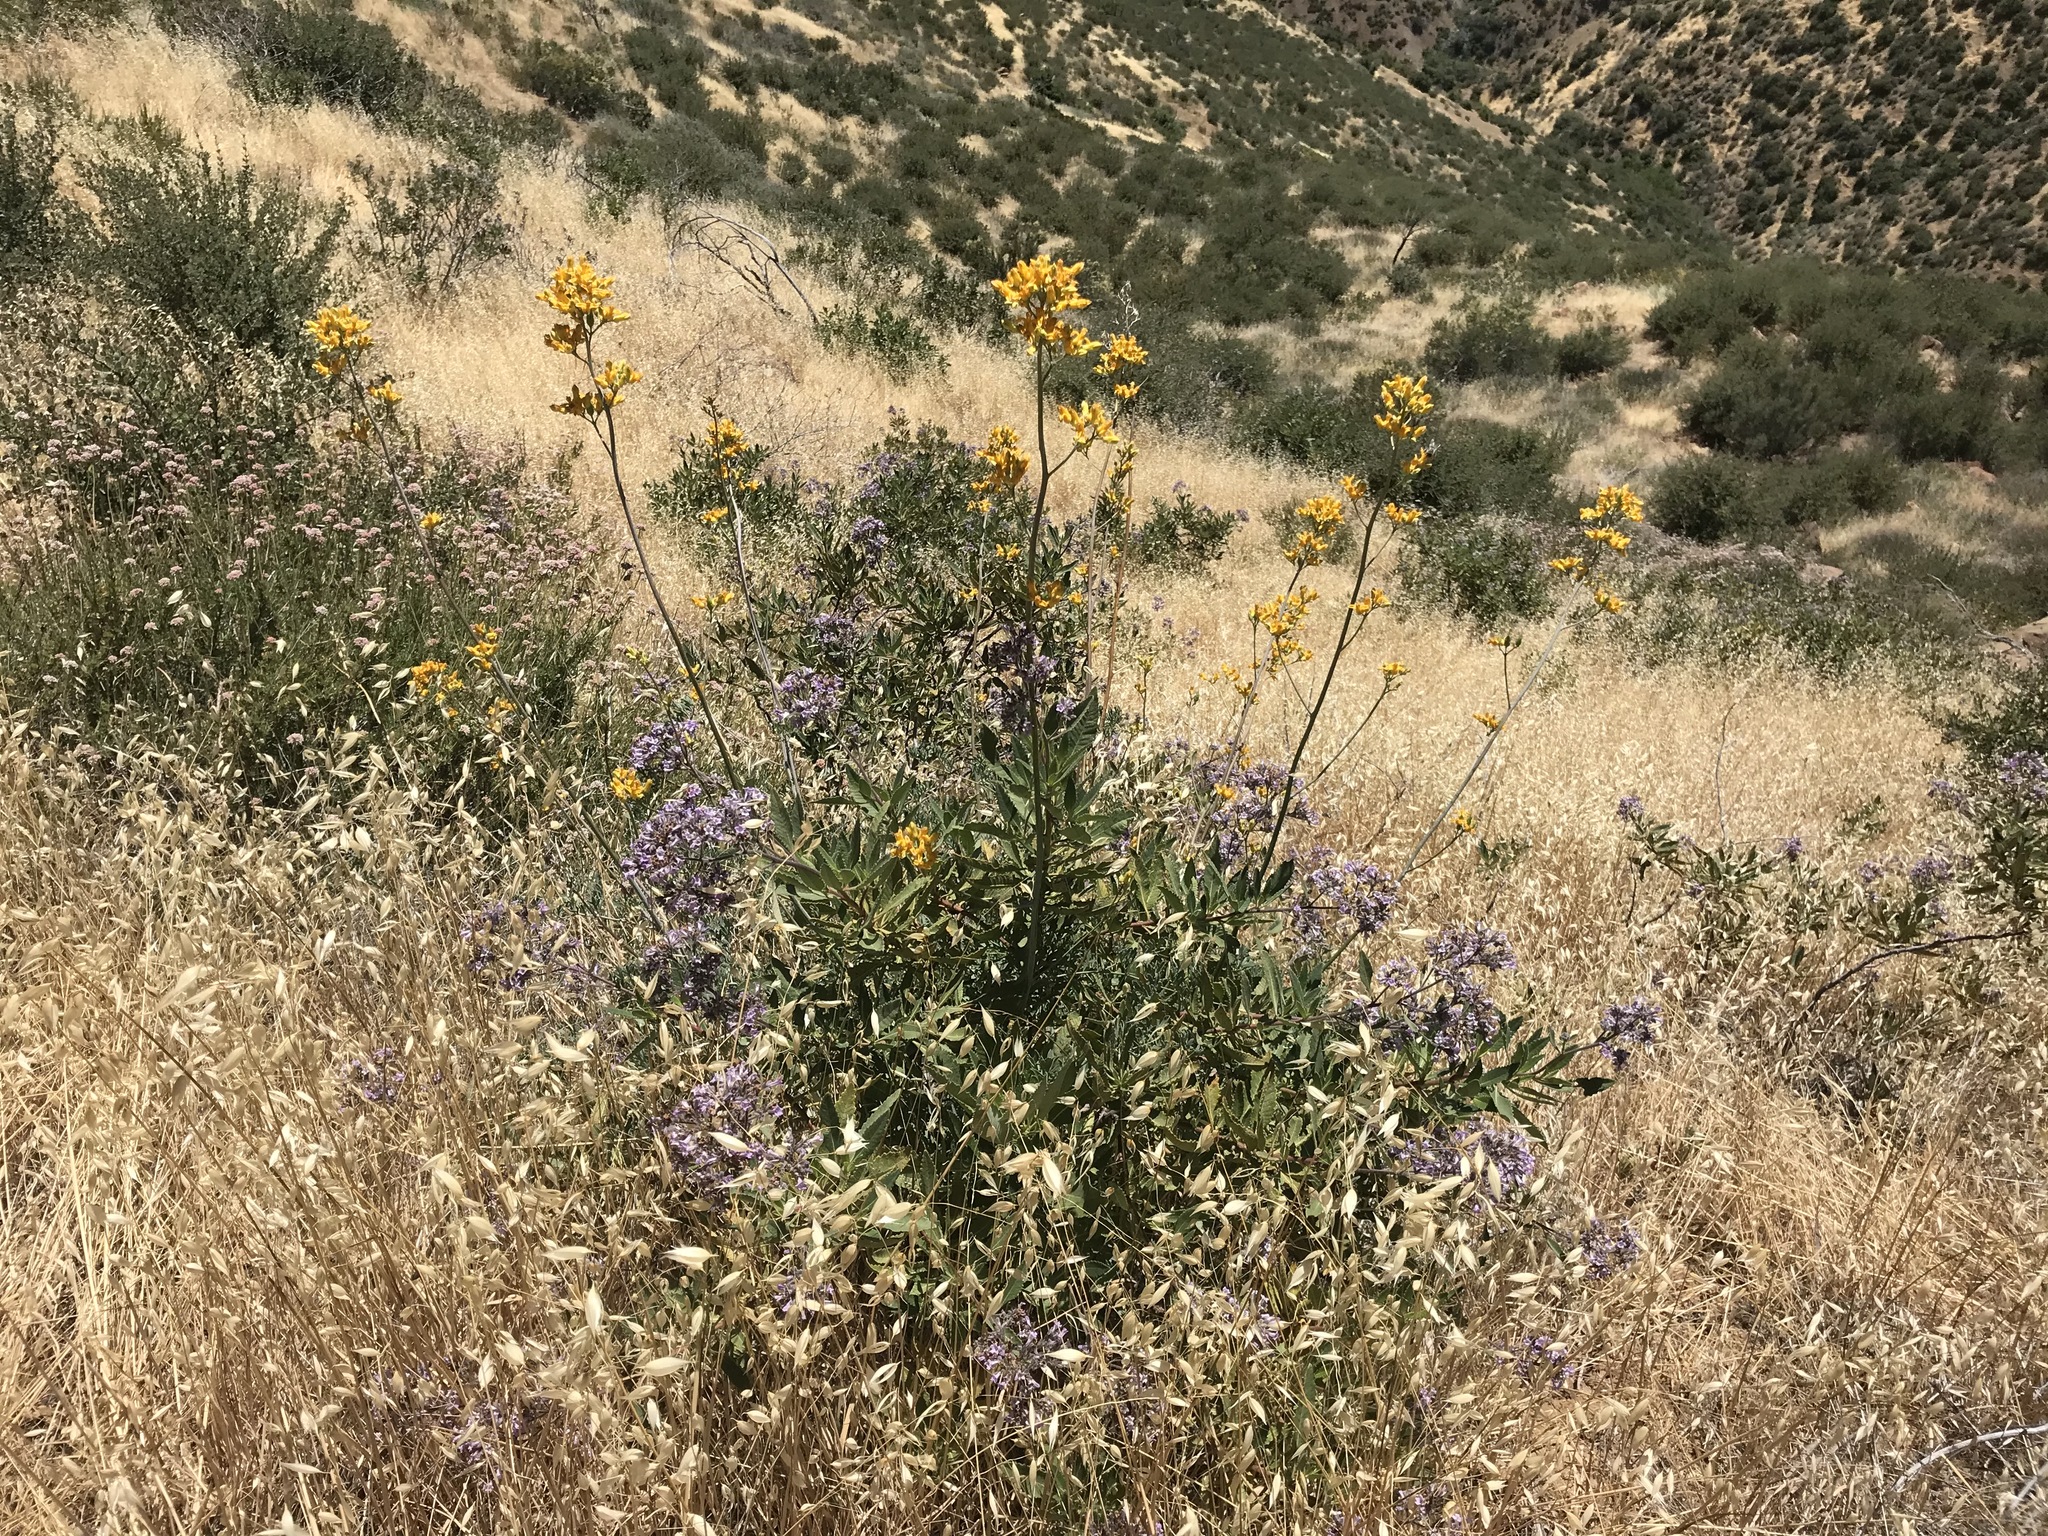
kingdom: Plantae
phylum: Tracheophyta
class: Magnoliopsida
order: Boraginales
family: Namaceae
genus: Eriodictyon
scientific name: Eriodictyon crassifolium
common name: Thick-leaf yerba-santa
